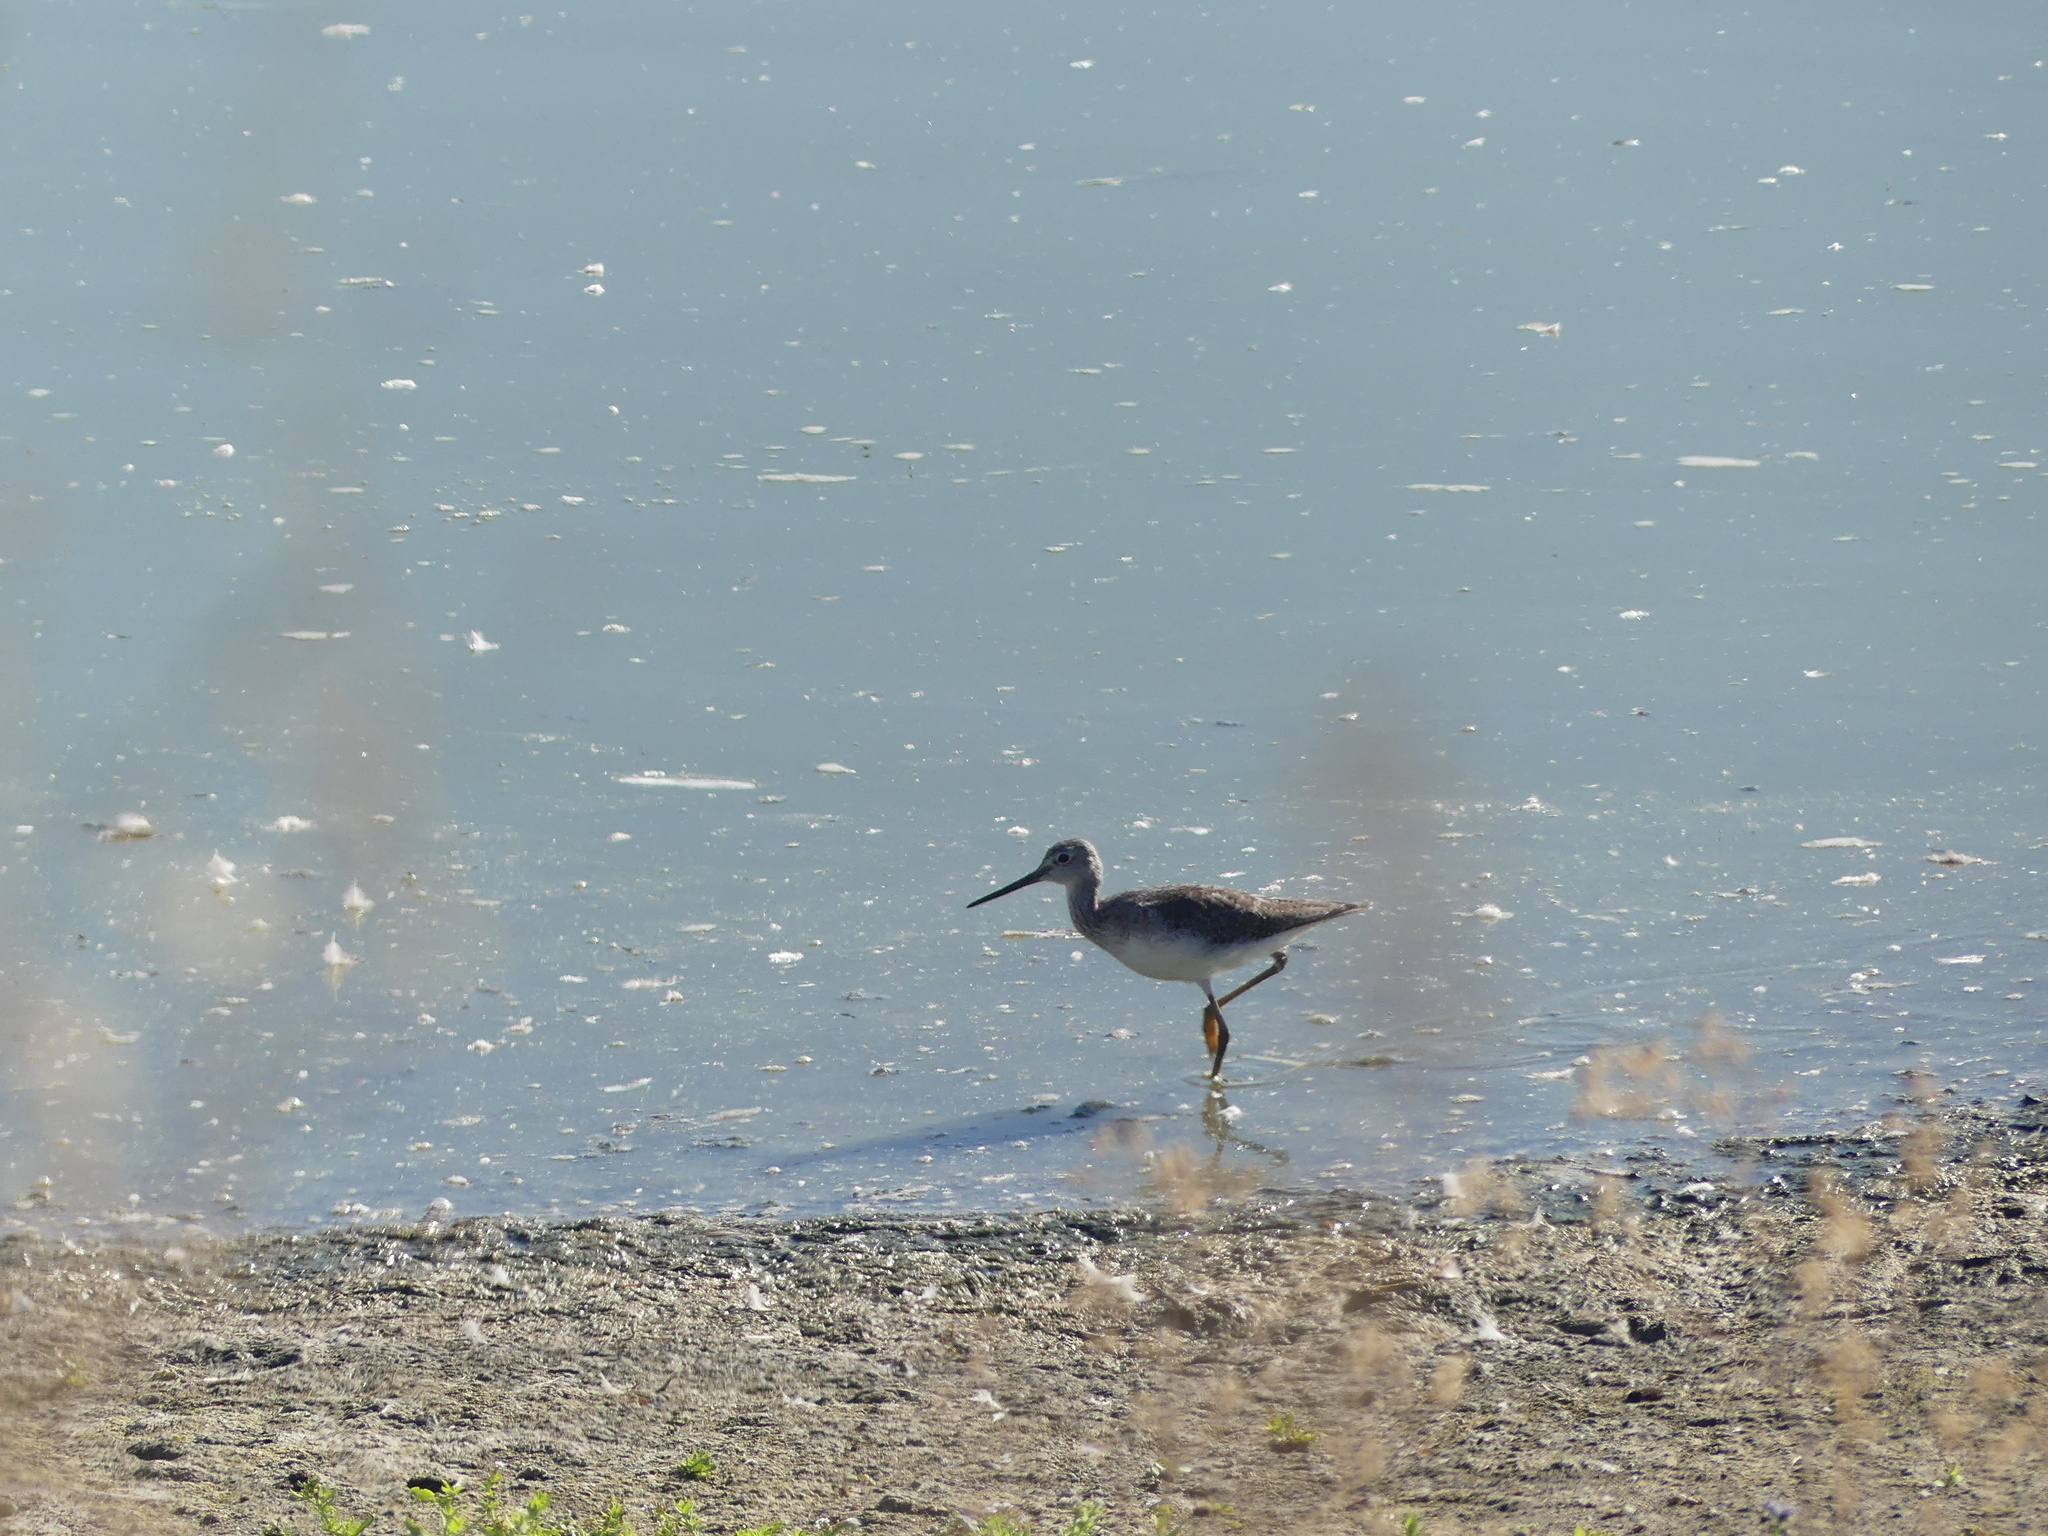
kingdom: Animalia
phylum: Chordata
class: Aves
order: Charadriiformes
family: Scolopacidae
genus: Tringa
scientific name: Tringa melanoleuca
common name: Greater yellowlegs
